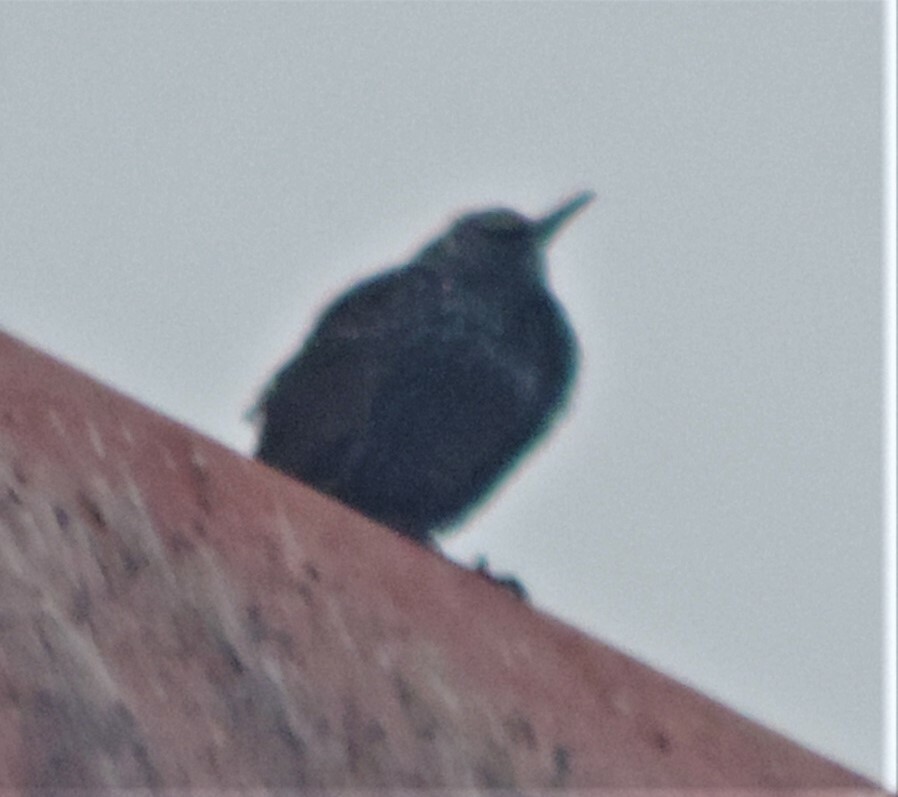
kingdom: Animalia
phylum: Chordata
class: Aves
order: Passeriformes
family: Sturnidae
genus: Sturnus
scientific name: Sturnus vulgaris
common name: Common starling
